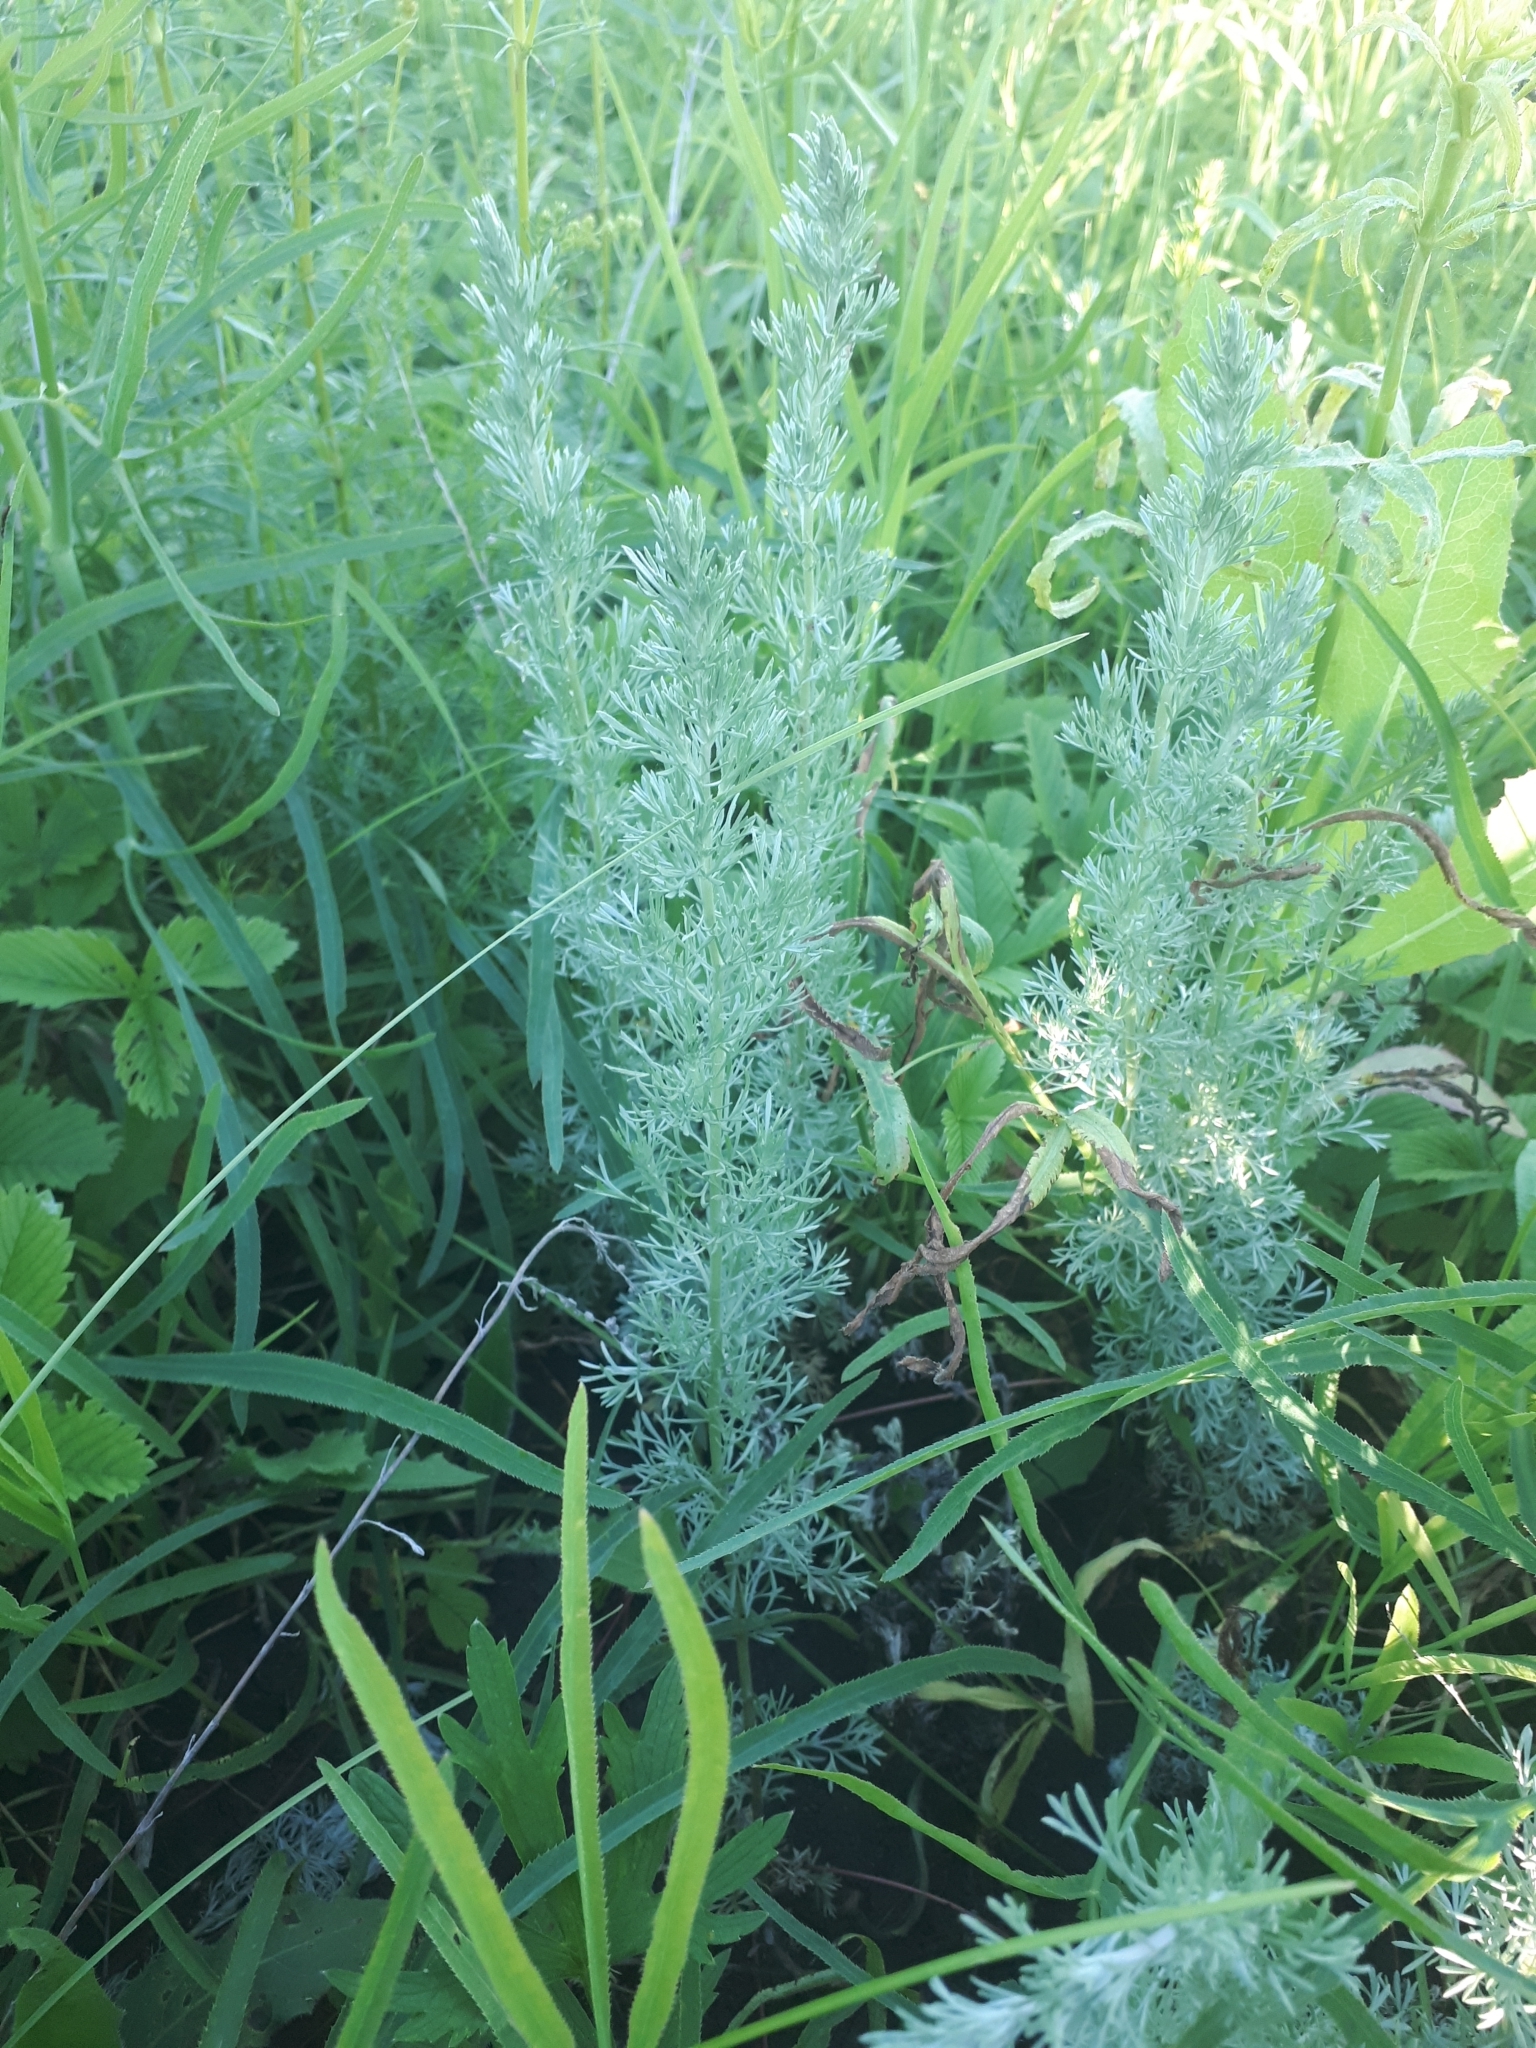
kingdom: Plantae
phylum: Tracheophyta
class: Magnoliopsida
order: Asterales
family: Asteraceae
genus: Artemisia
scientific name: Artemisia austriaca
